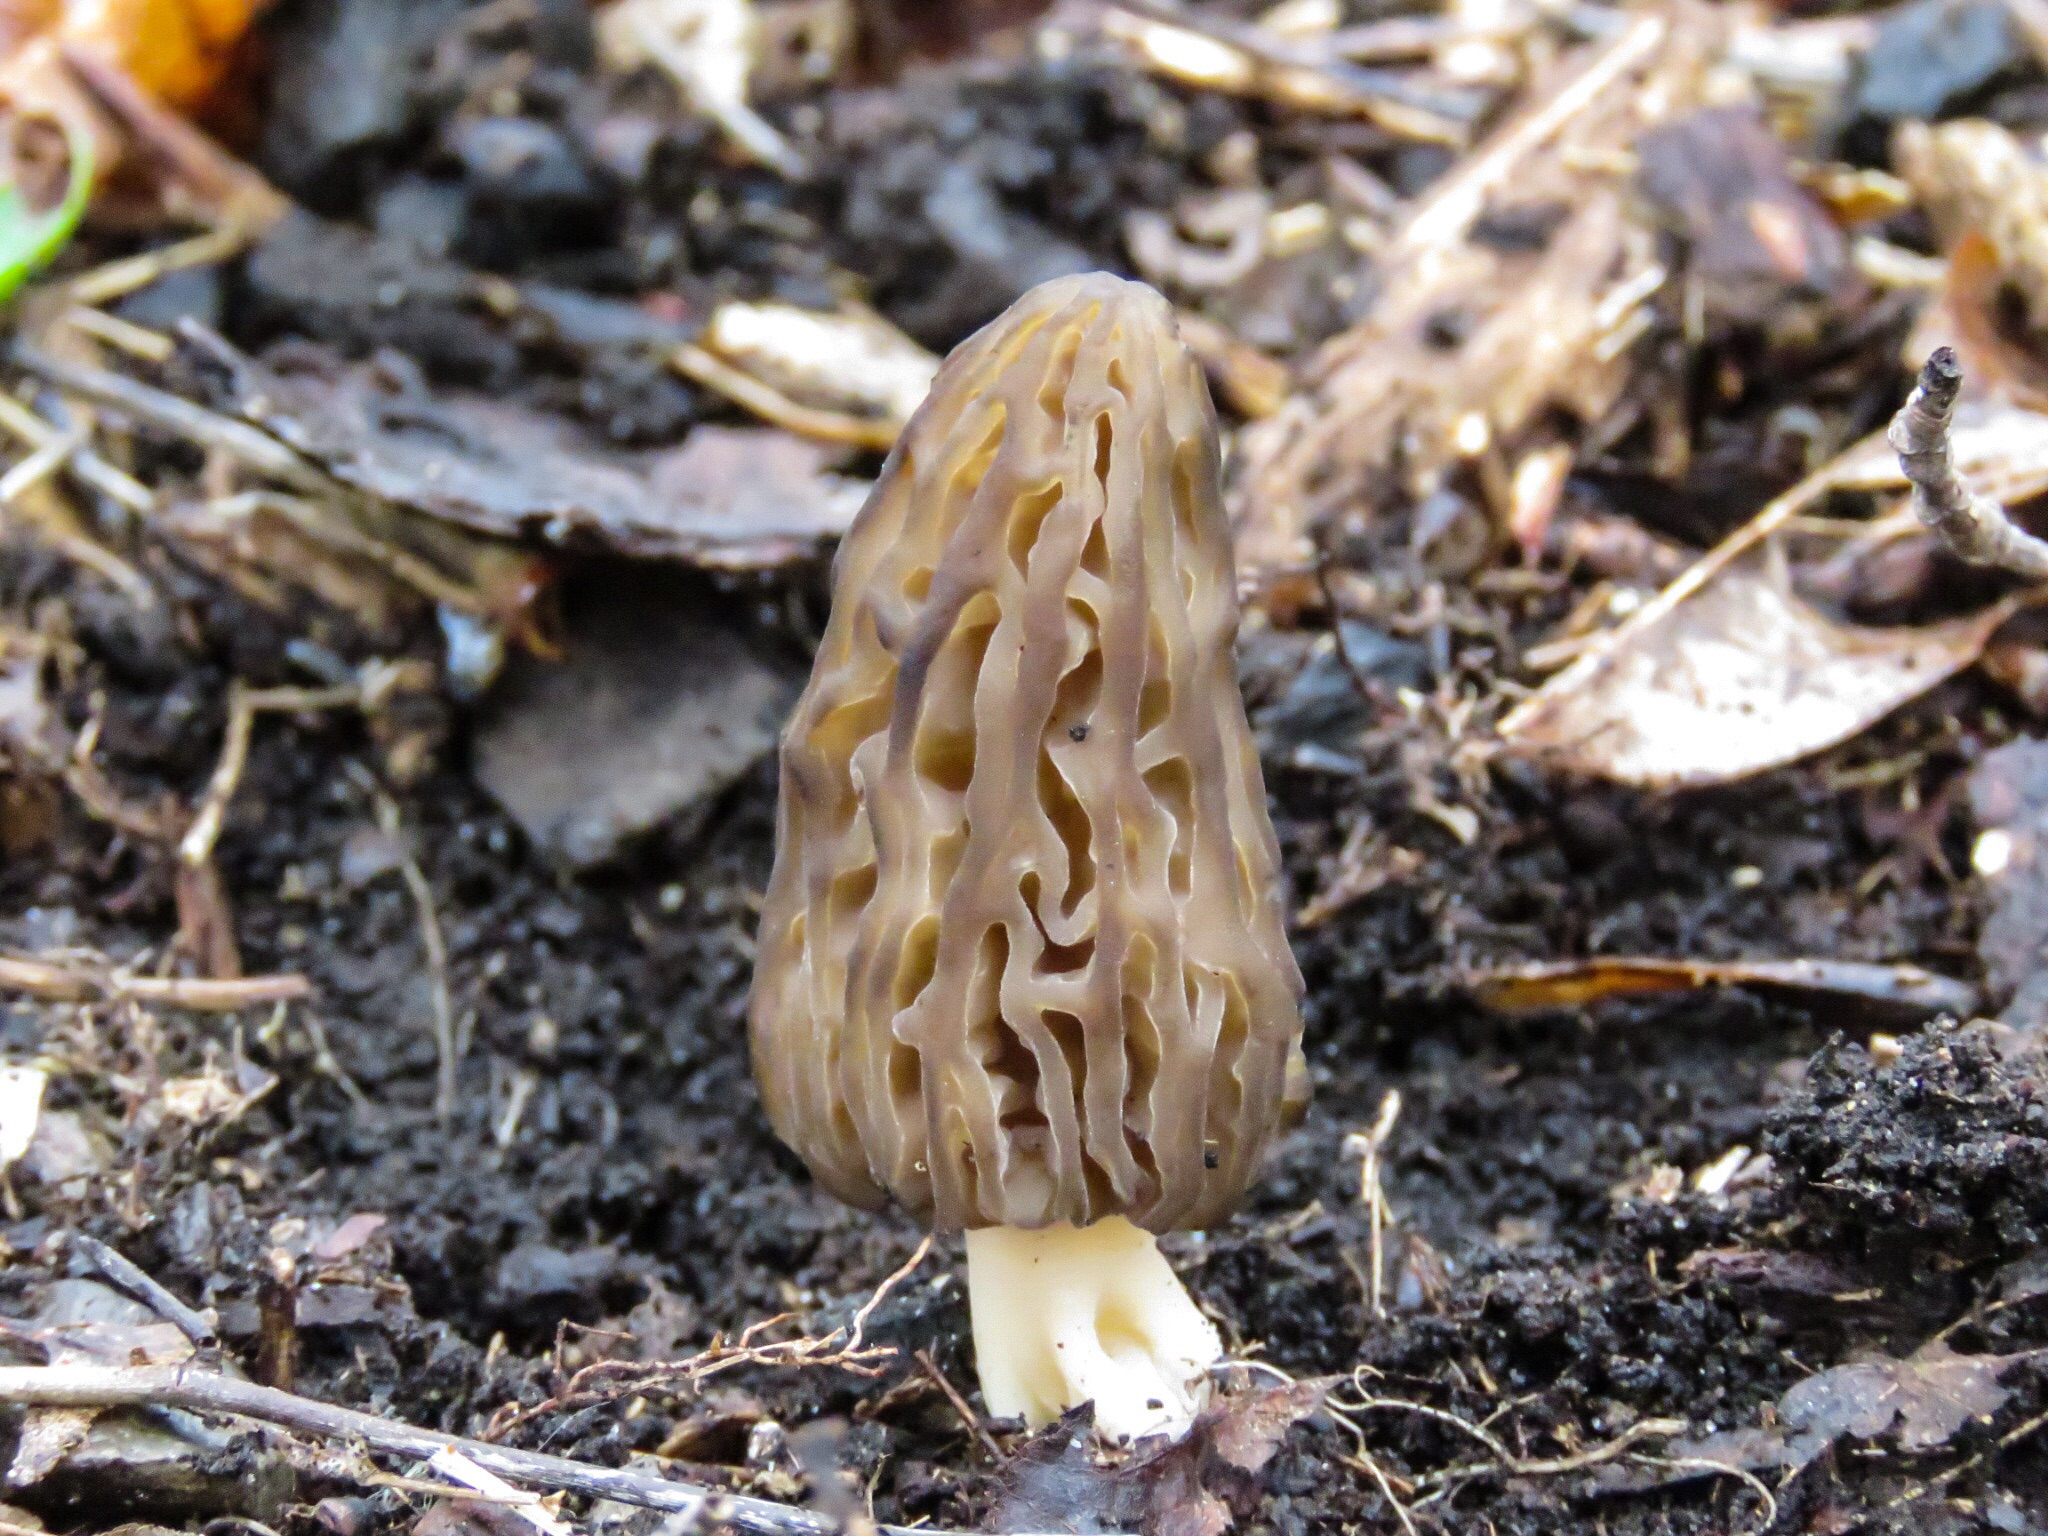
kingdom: Fungi
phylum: Ascomycota
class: Pezizomycetes
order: Pezizales
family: Morchellaceae
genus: Morchella
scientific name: Morchella angusticeps
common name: Black morel
